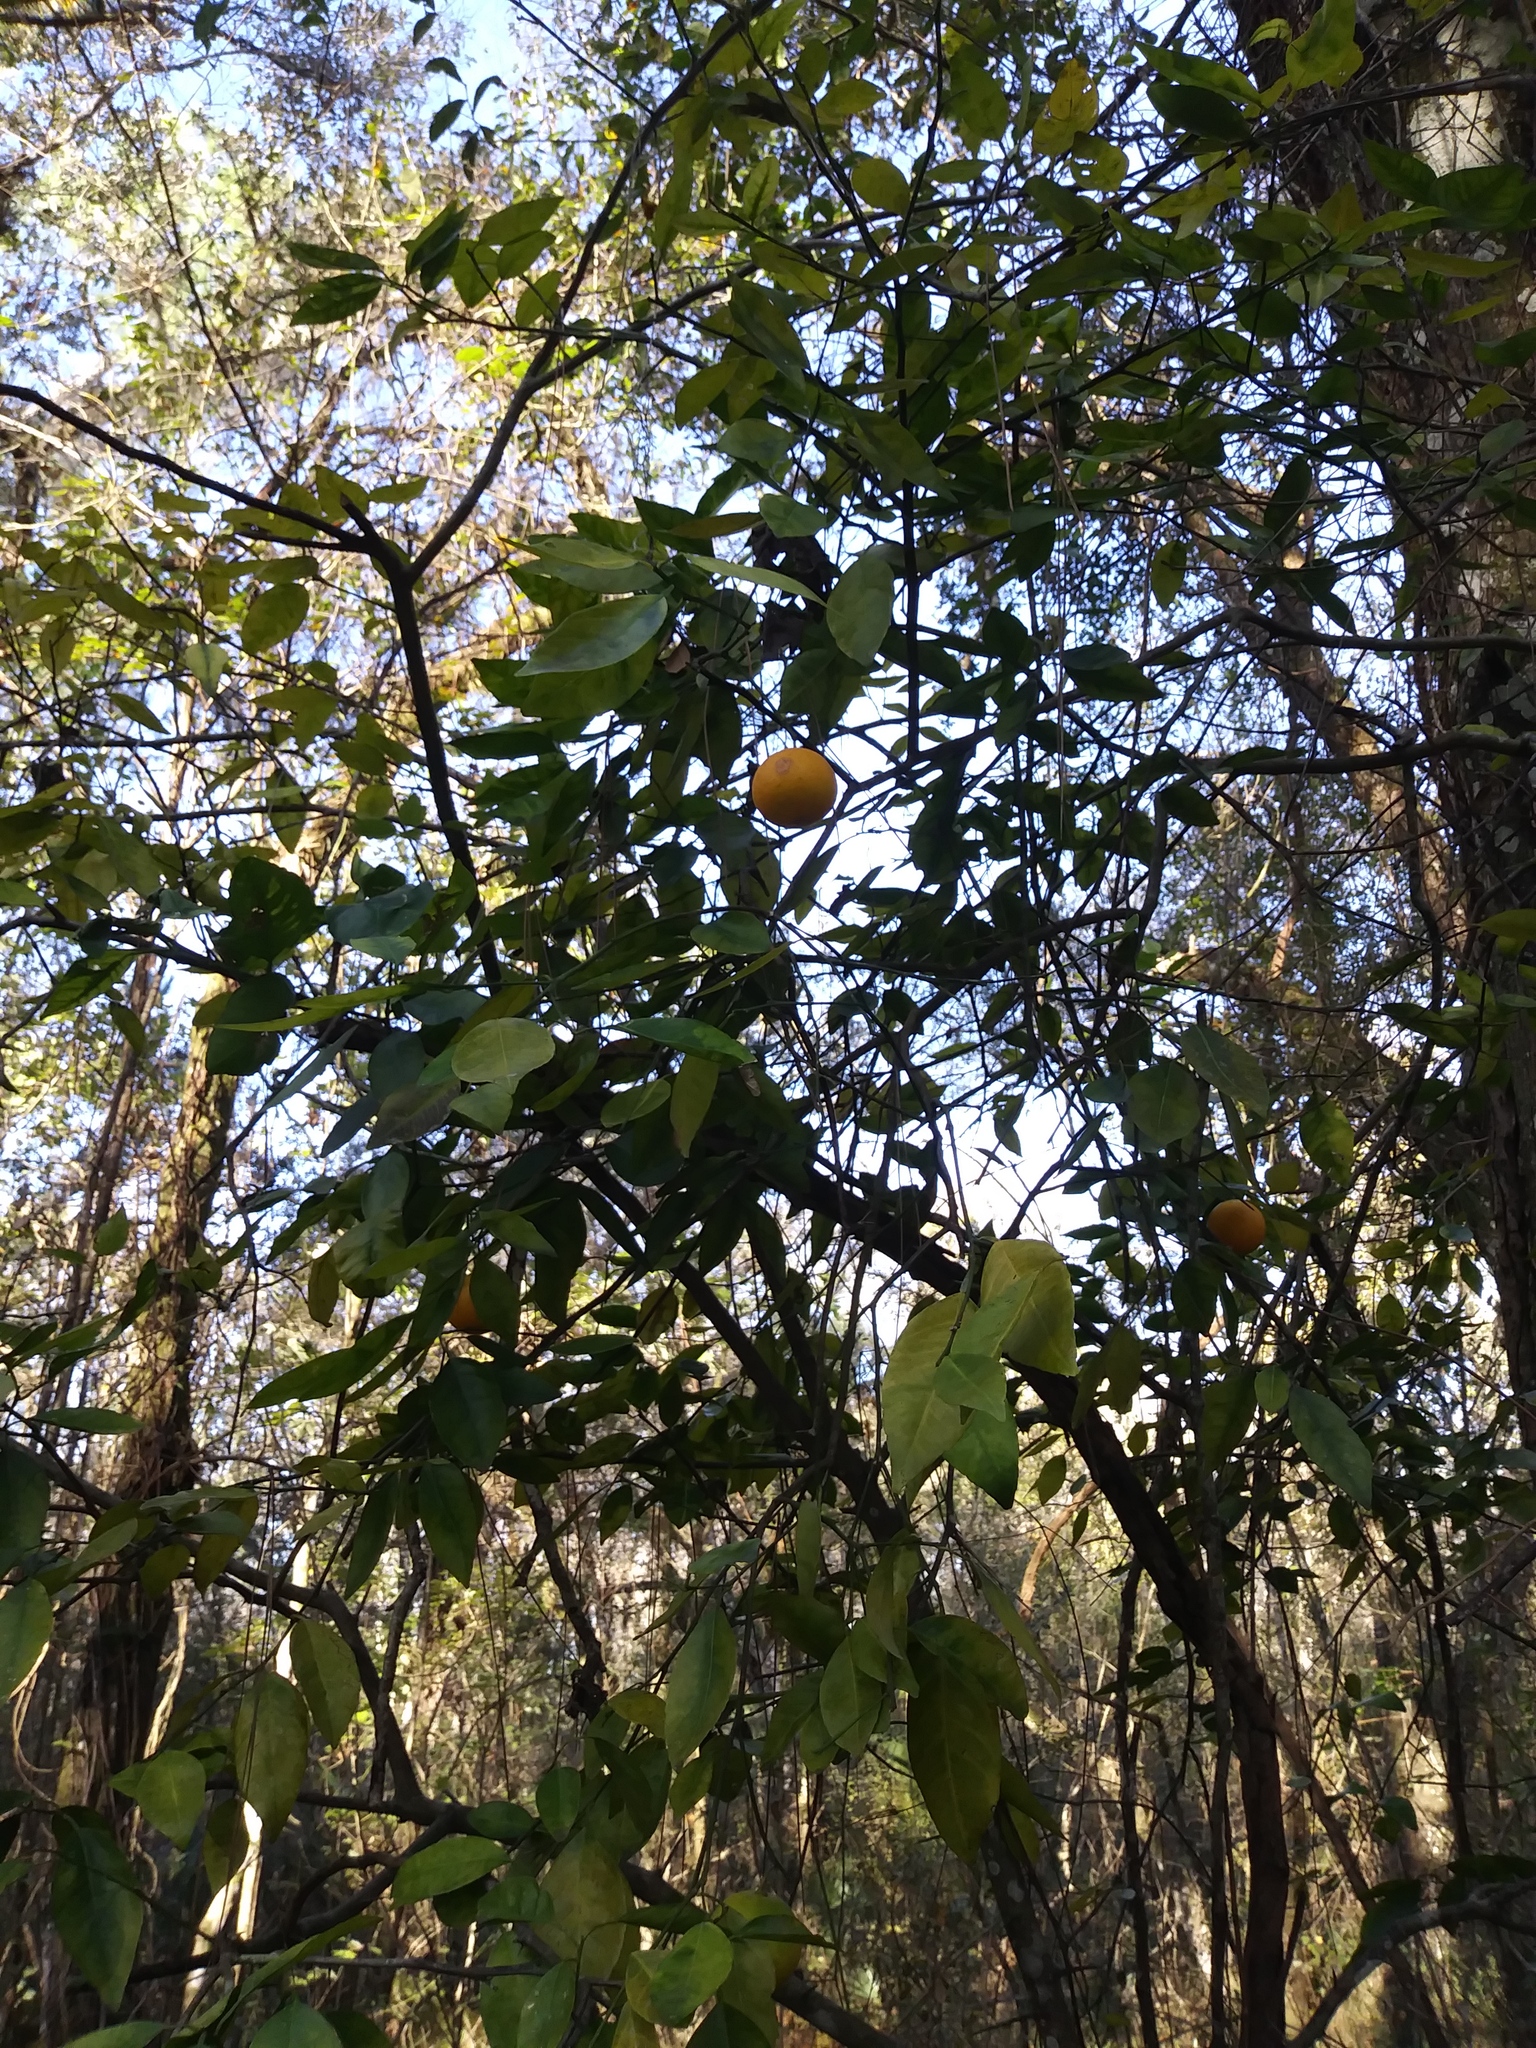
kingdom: Plantae
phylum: Tracheophyta
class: Magnoliopsida
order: Sapindales
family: Rutaceae
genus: Citrus
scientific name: Citrus aurantium
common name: Sour orange
